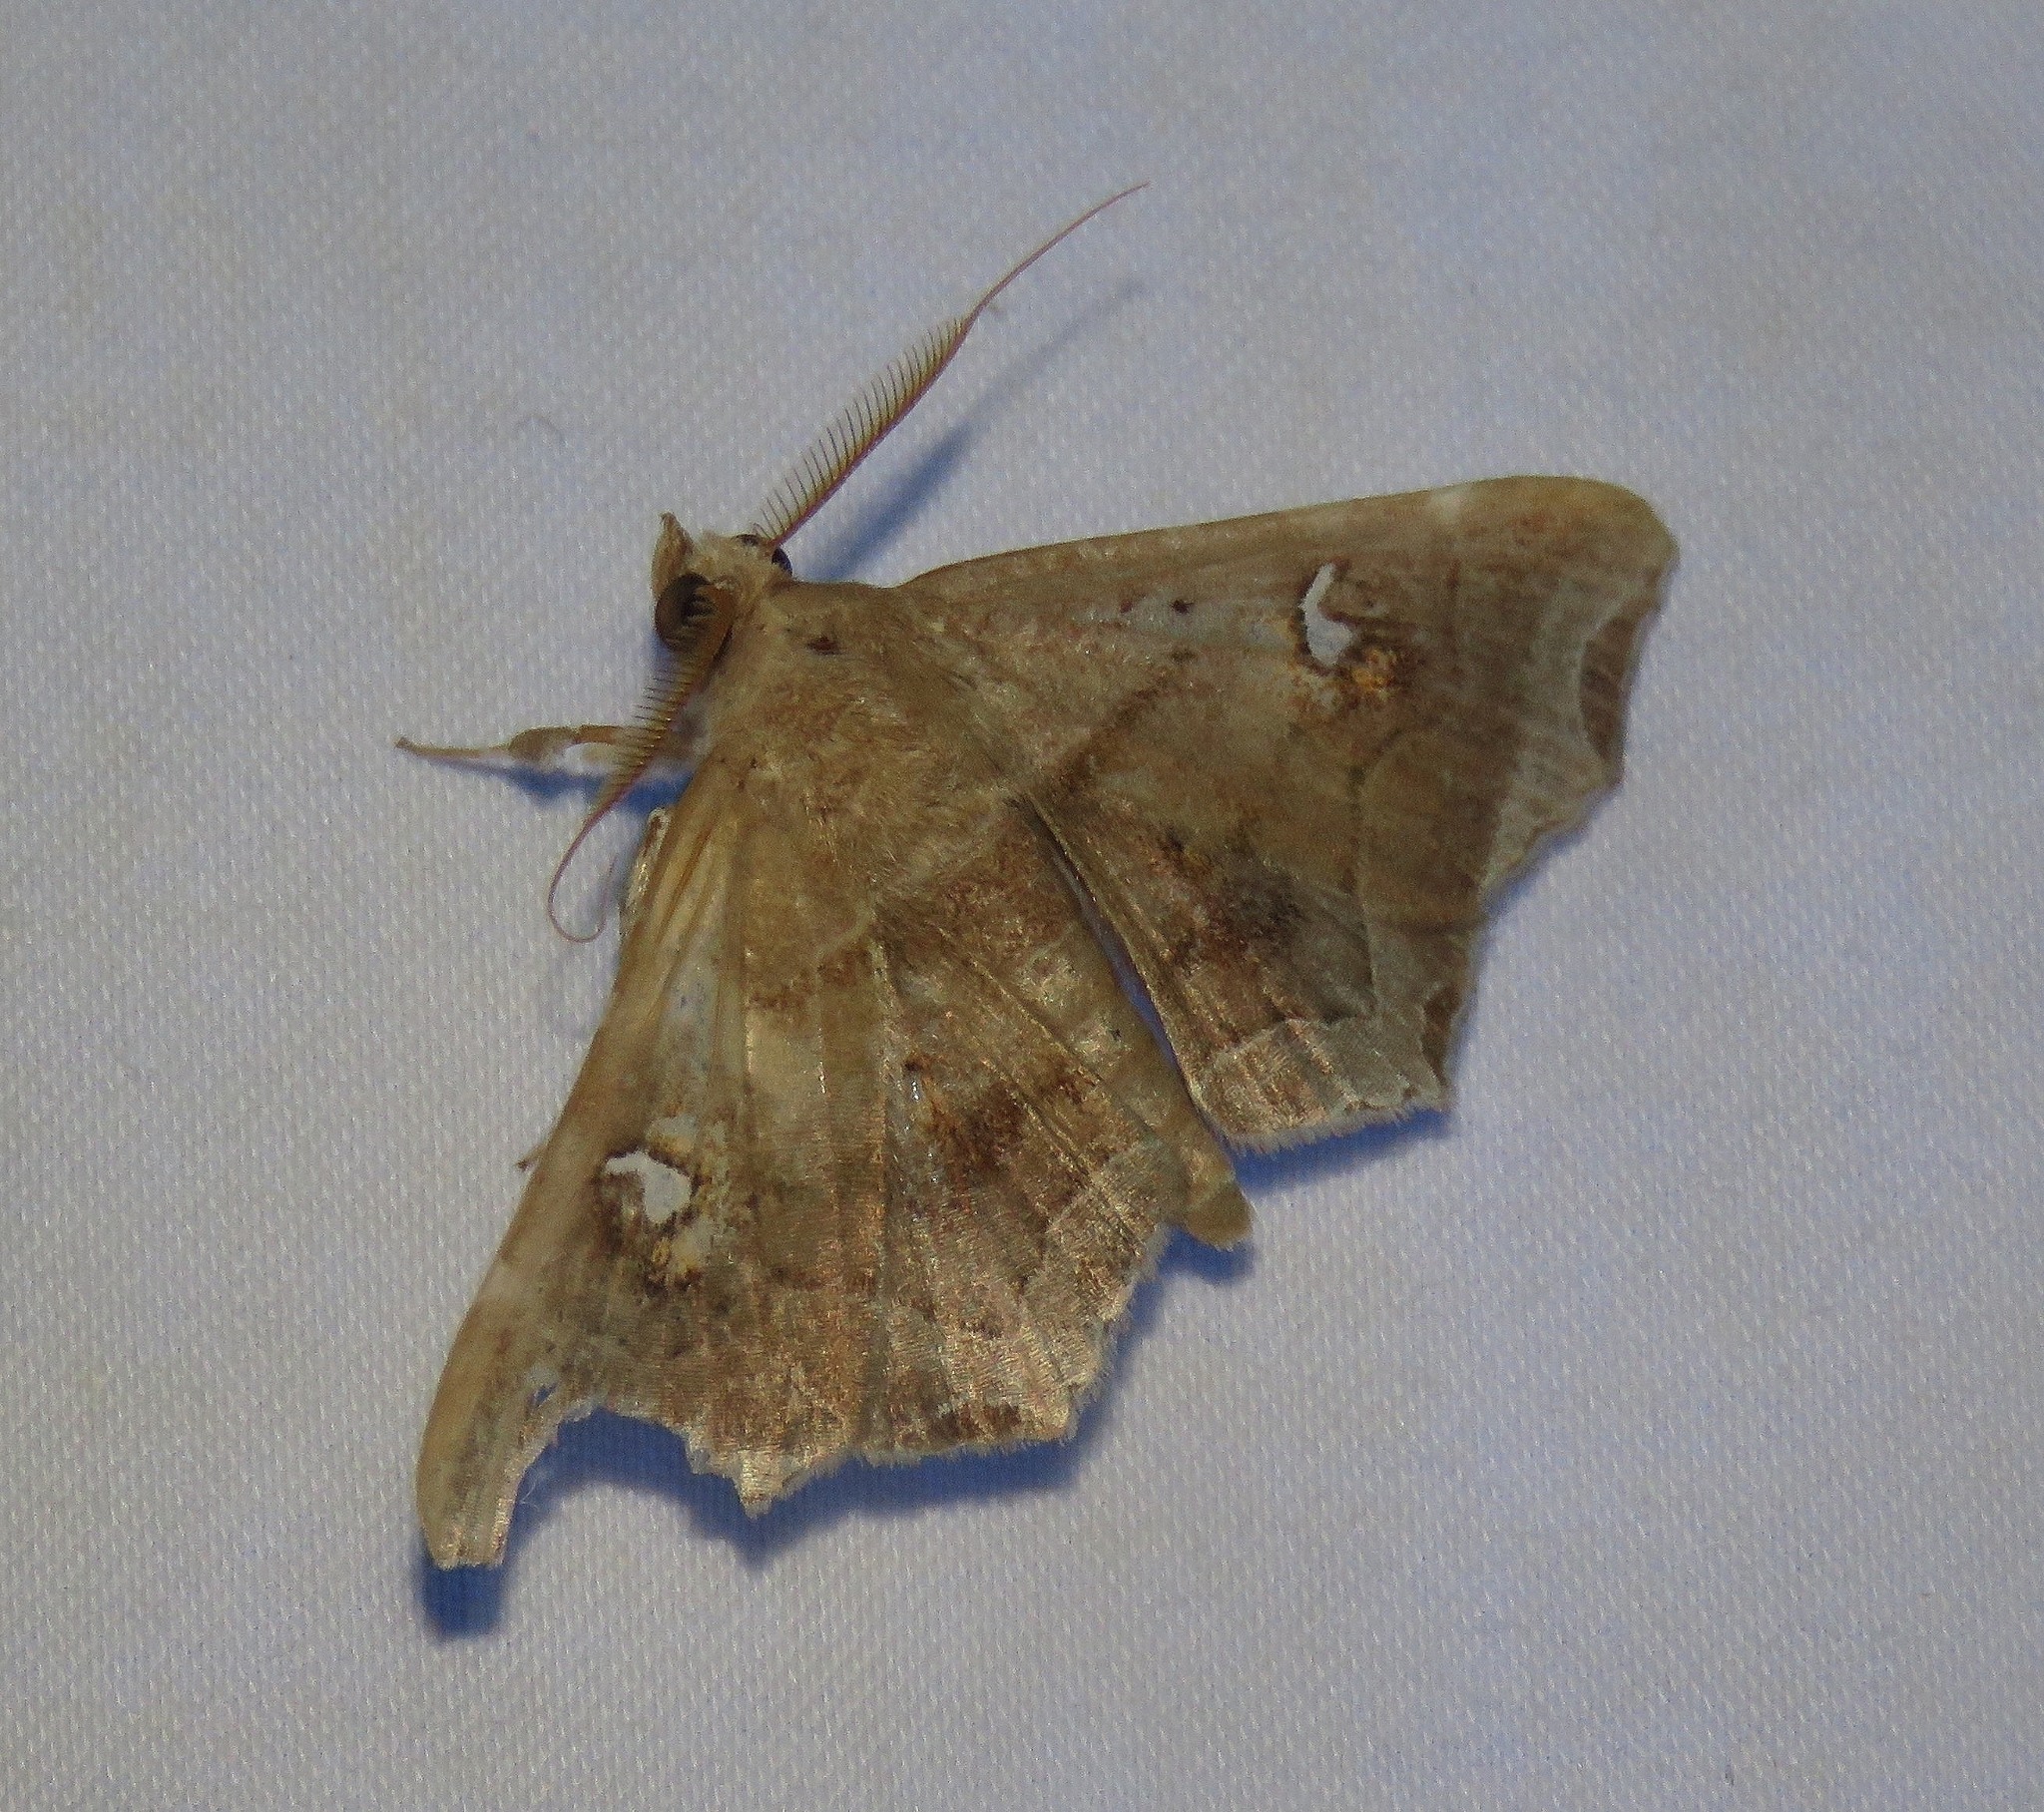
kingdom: Animalia
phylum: Arthropoda
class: Insecta
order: Lepidoptera
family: Erebidae
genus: Episparis
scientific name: Episparis liturata
